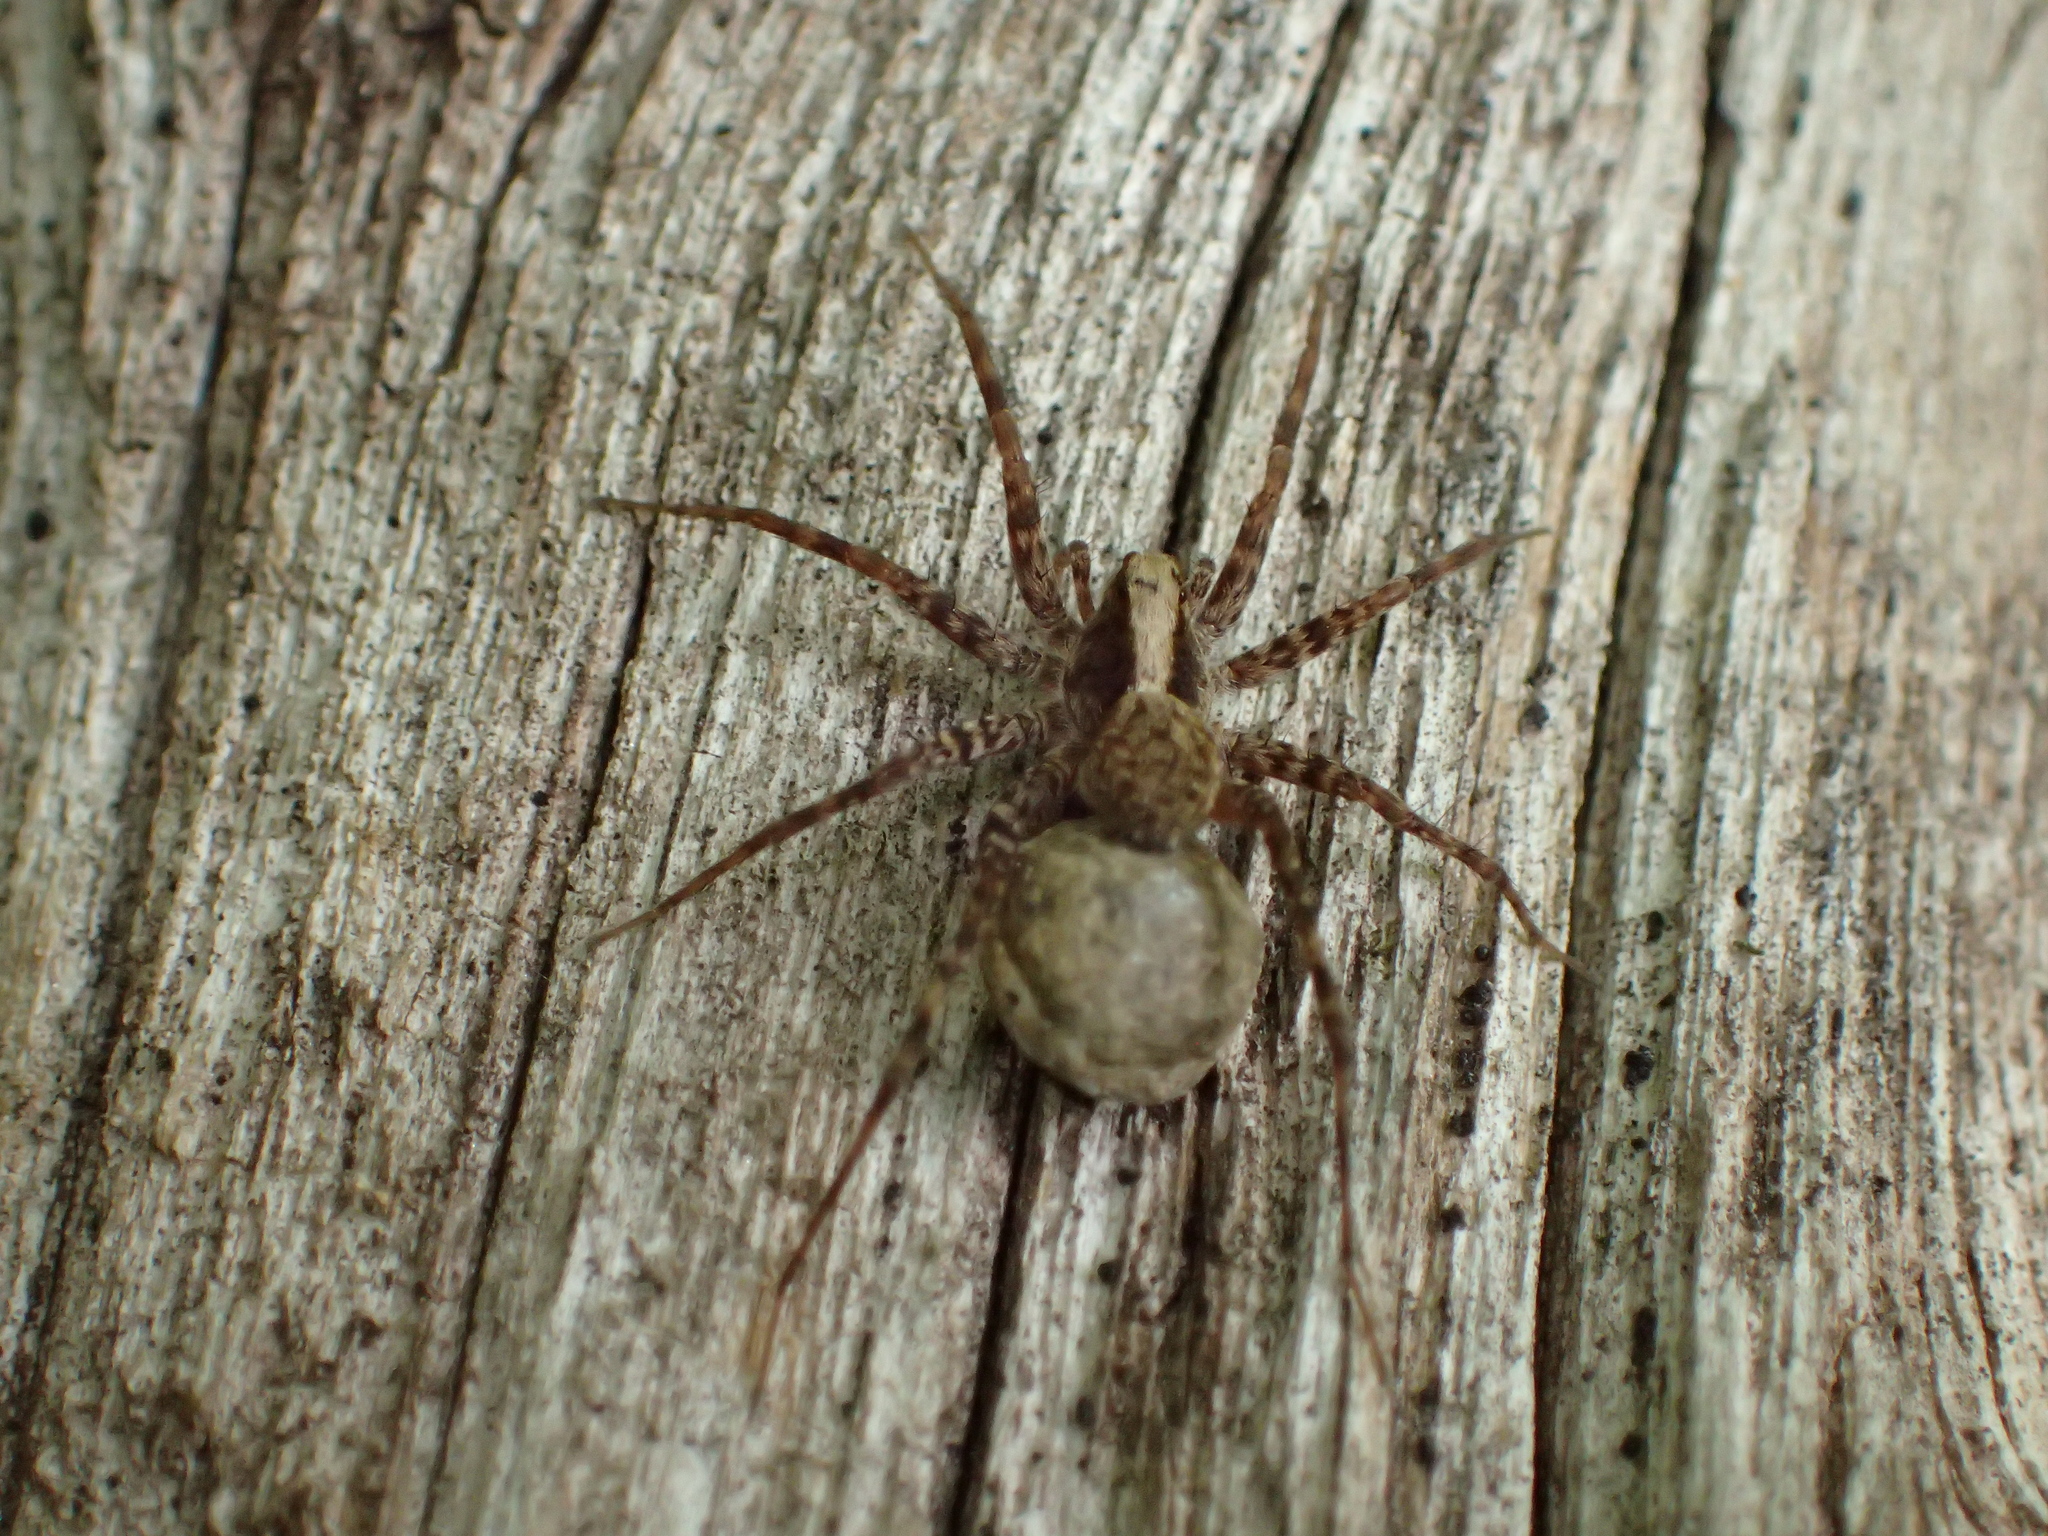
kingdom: Animalia
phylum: Arthropoda
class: Arachnida
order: Araneae
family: Lycosidae
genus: Pardosa
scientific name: Pardosa
